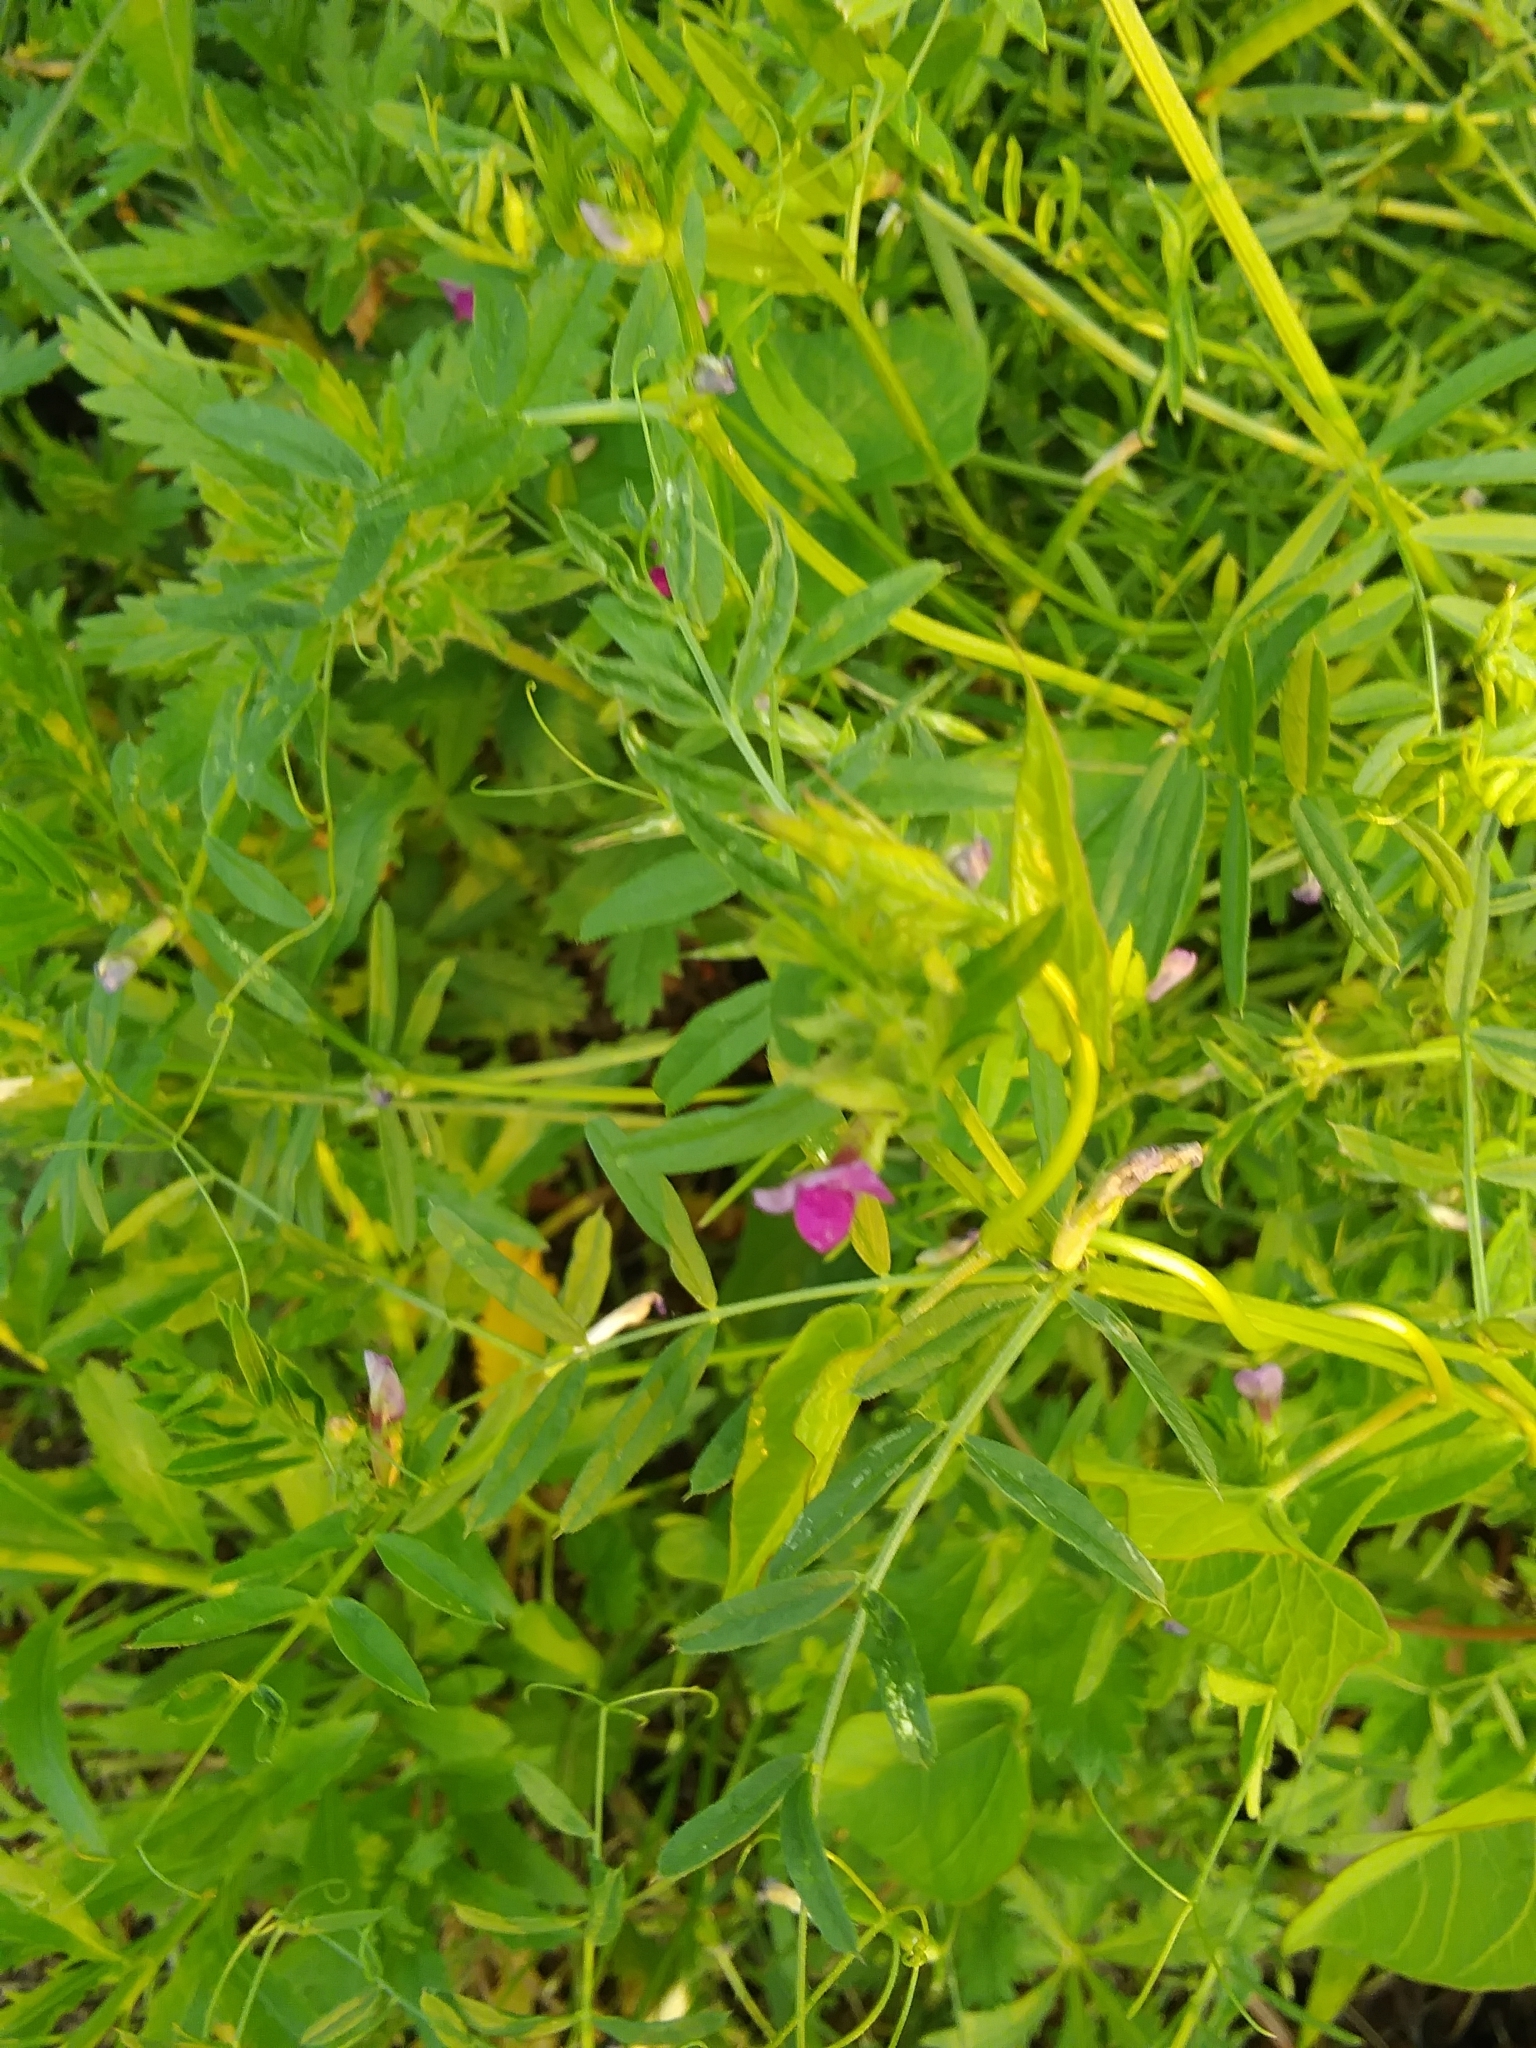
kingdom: Plantae
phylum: Tracheophyta
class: Magnoliopsida
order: Fabales
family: Fabaceae
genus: Vicia
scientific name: Vicia sativa
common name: Garden vetch
